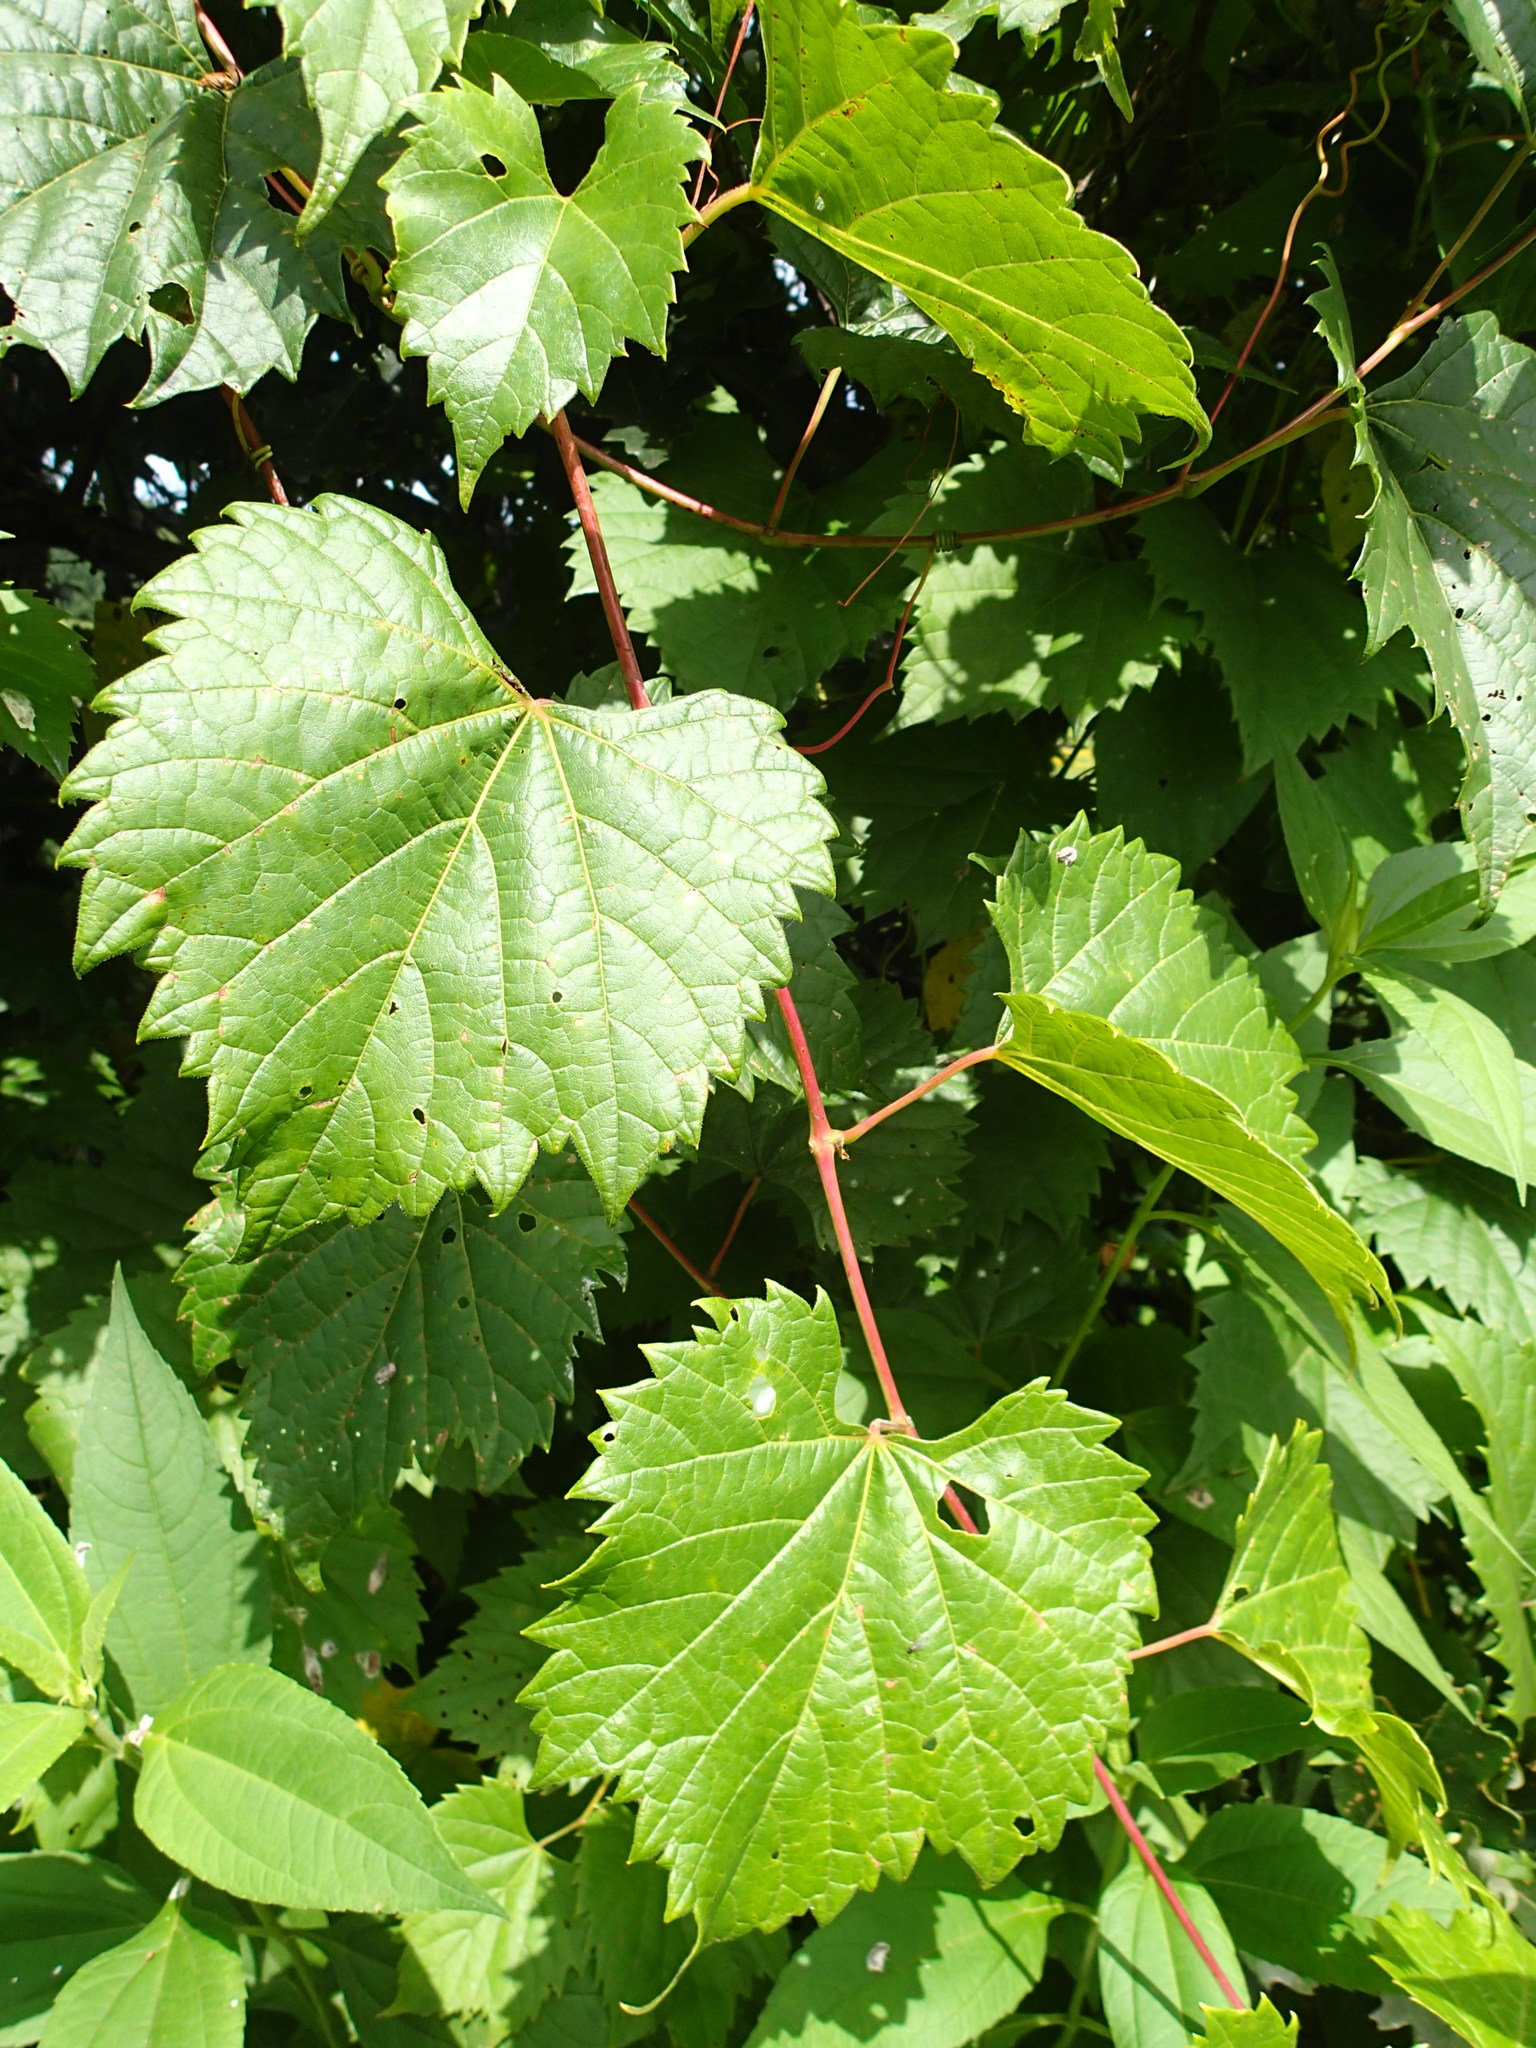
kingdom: Plantae
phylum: Tracheophyta
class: Magnoliopsida
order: Vitales
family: Vitaceae
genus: Vitis
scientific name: Vitis riparia
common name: Frost grape
